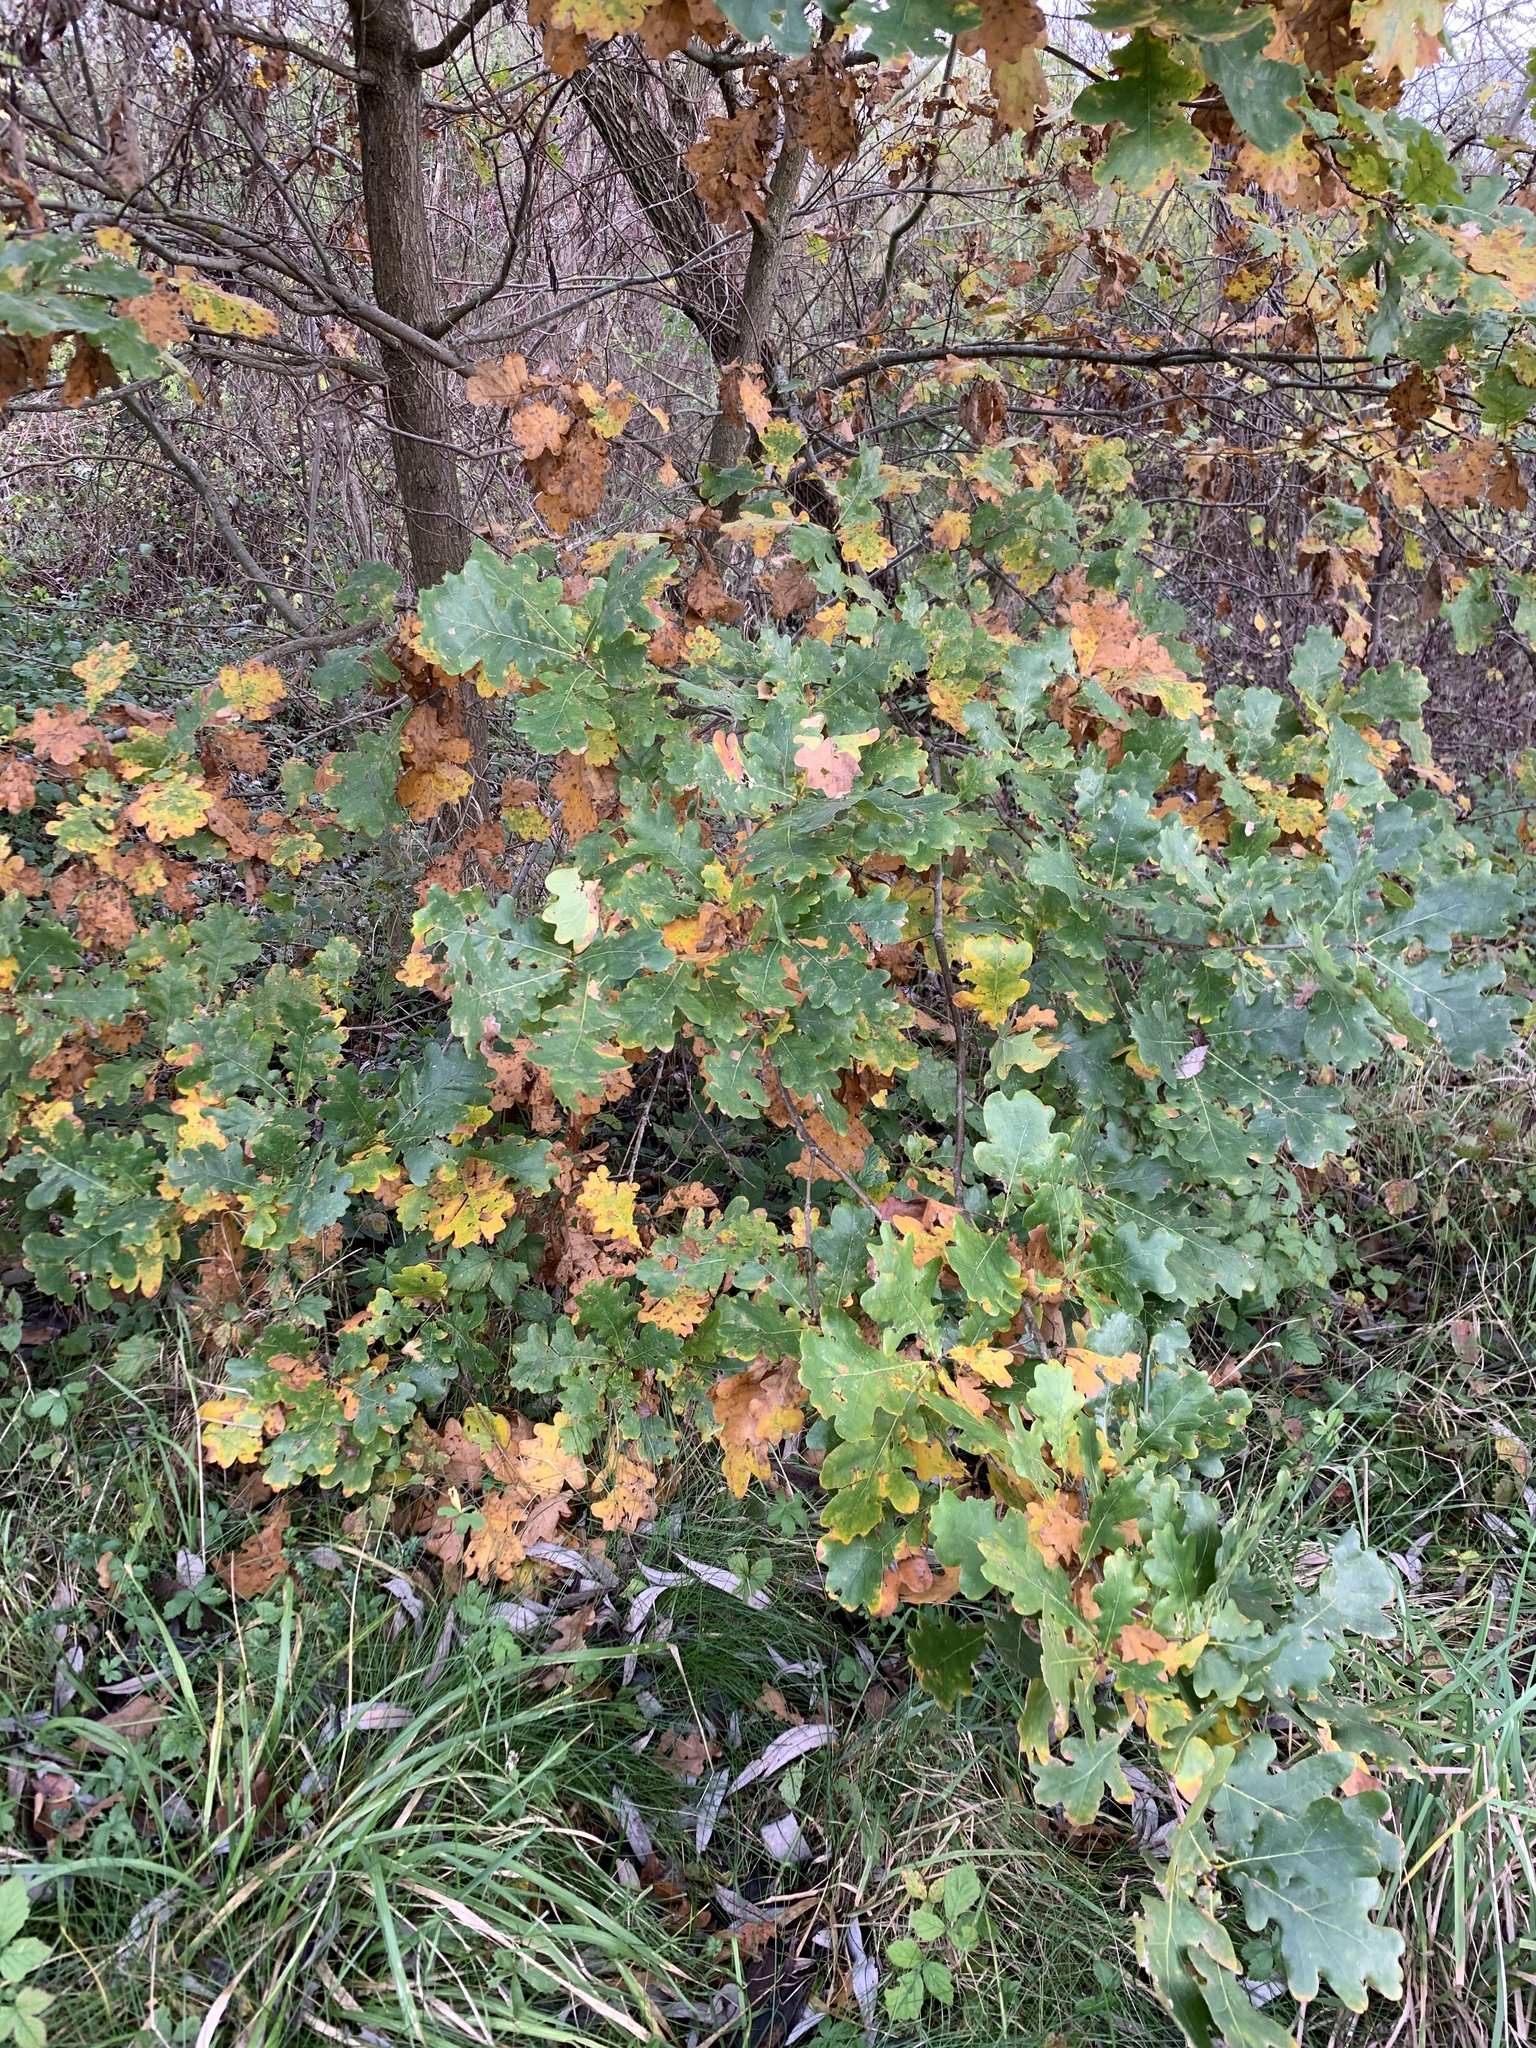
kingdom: Plantae
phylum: Tracheophyta
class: Magnoliopsida
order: Fagales
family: Fagaceae
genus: Quercus
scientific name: Quercus robur
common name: Pedunculate oak
